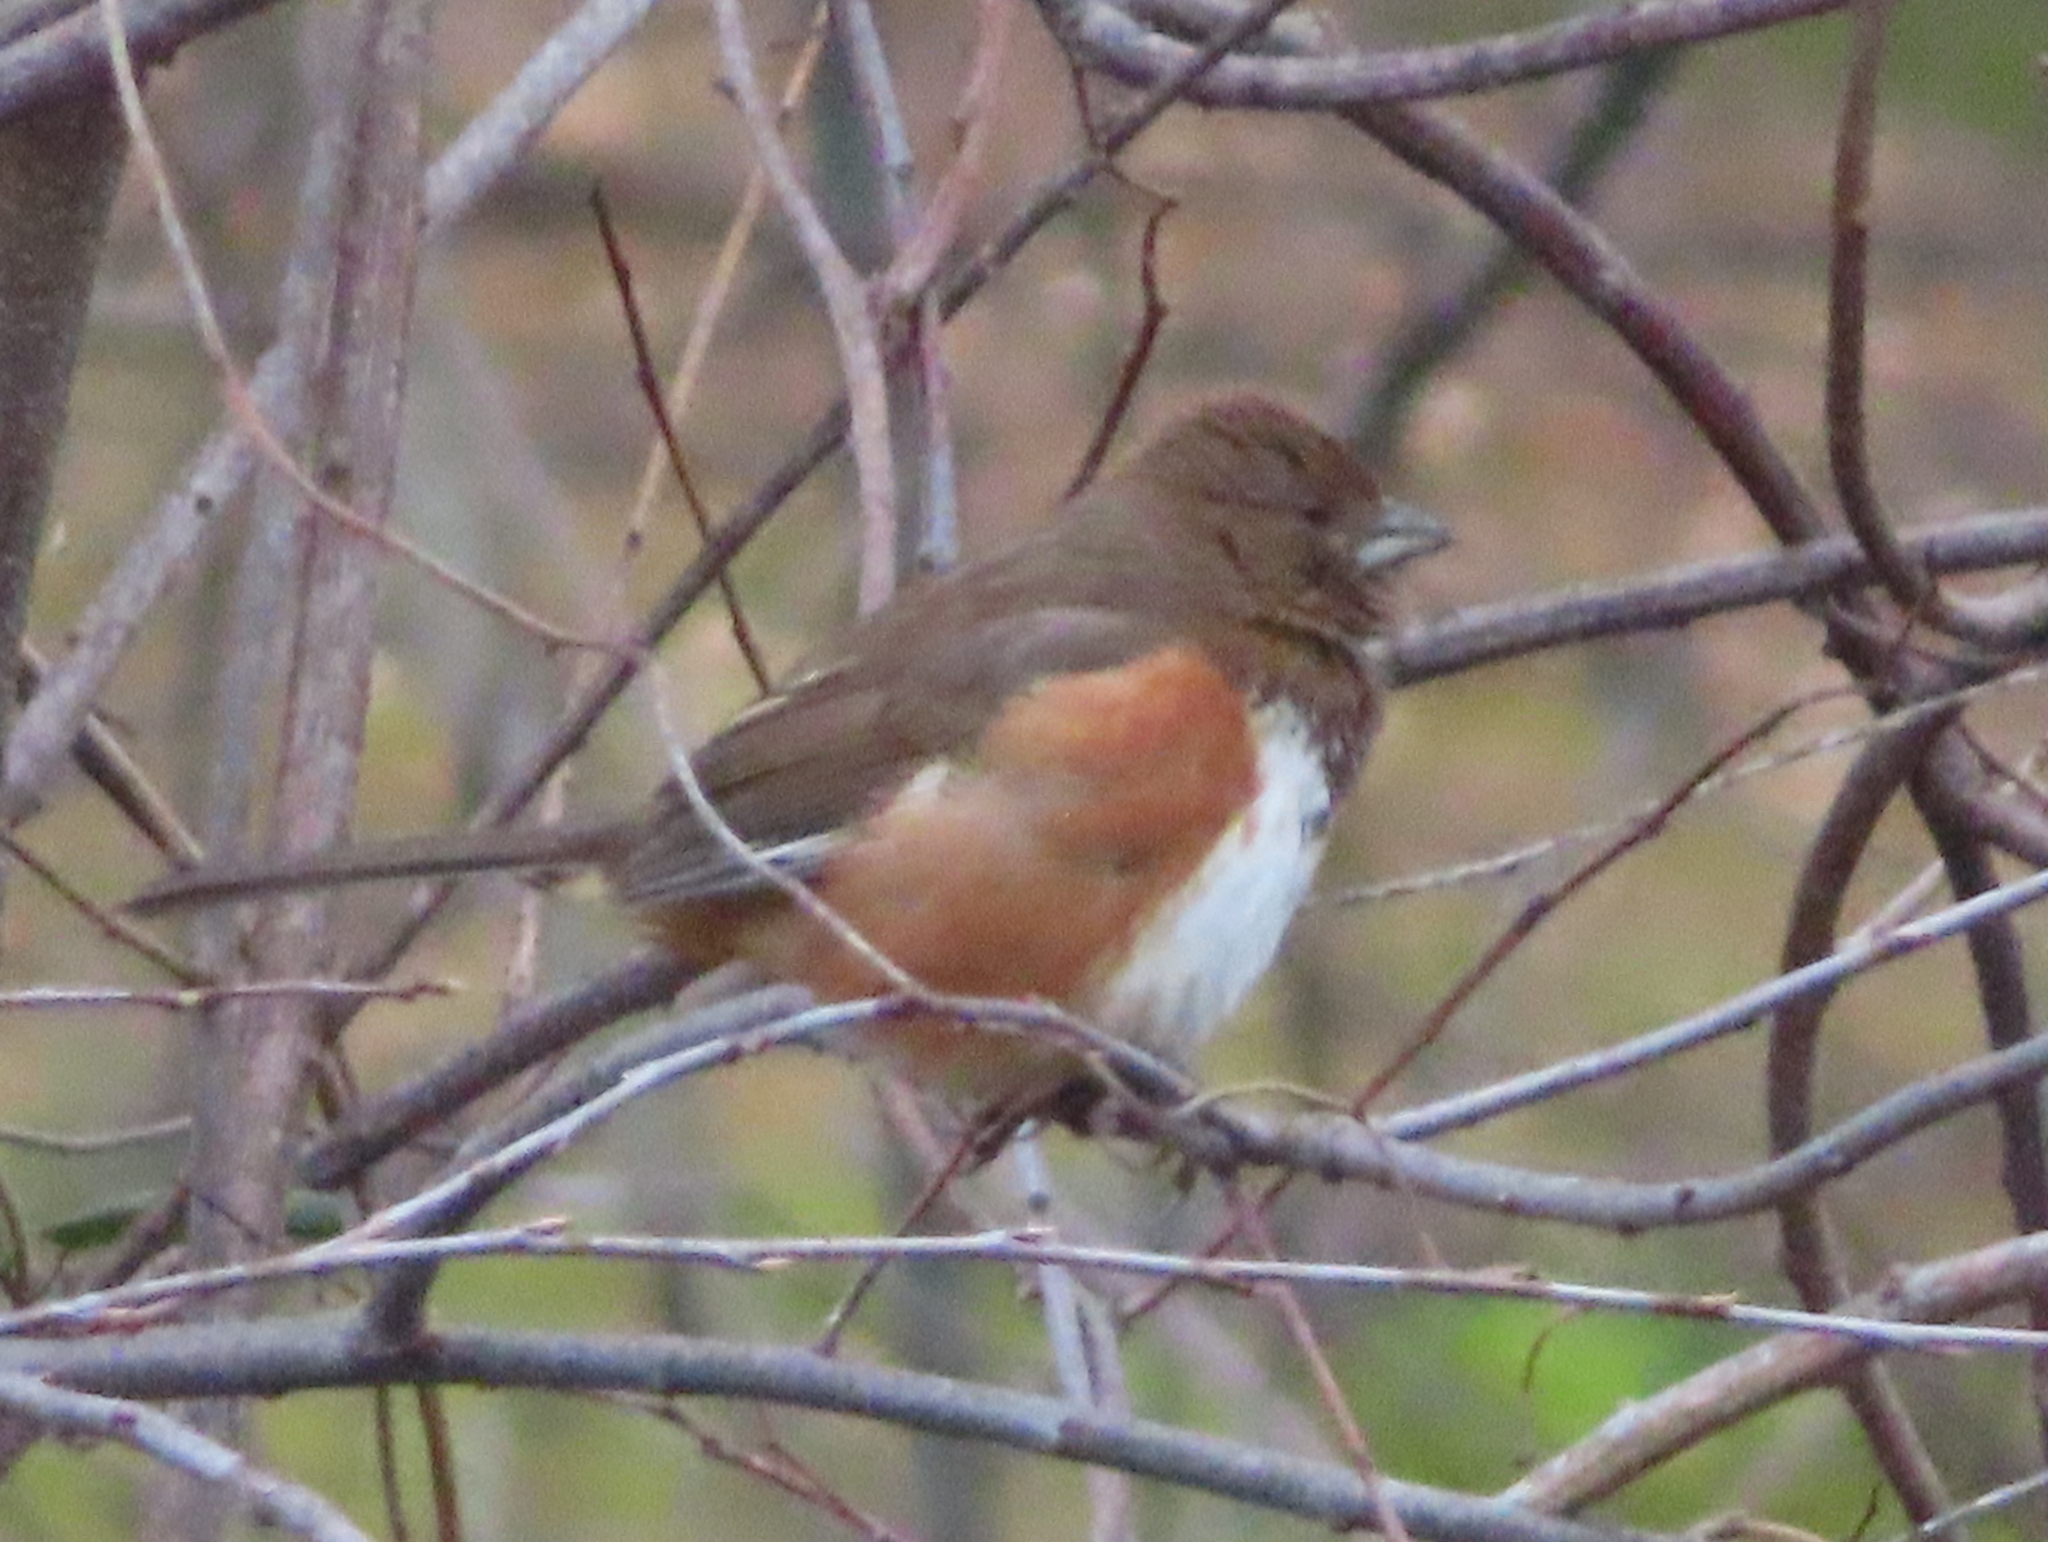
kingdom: Animalia
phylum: Chordata
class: Aves
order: Passeriformes
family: Passerellidae
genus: Pipilo
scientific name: Pipilo erythrophthalmus
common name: Eastern towhee
